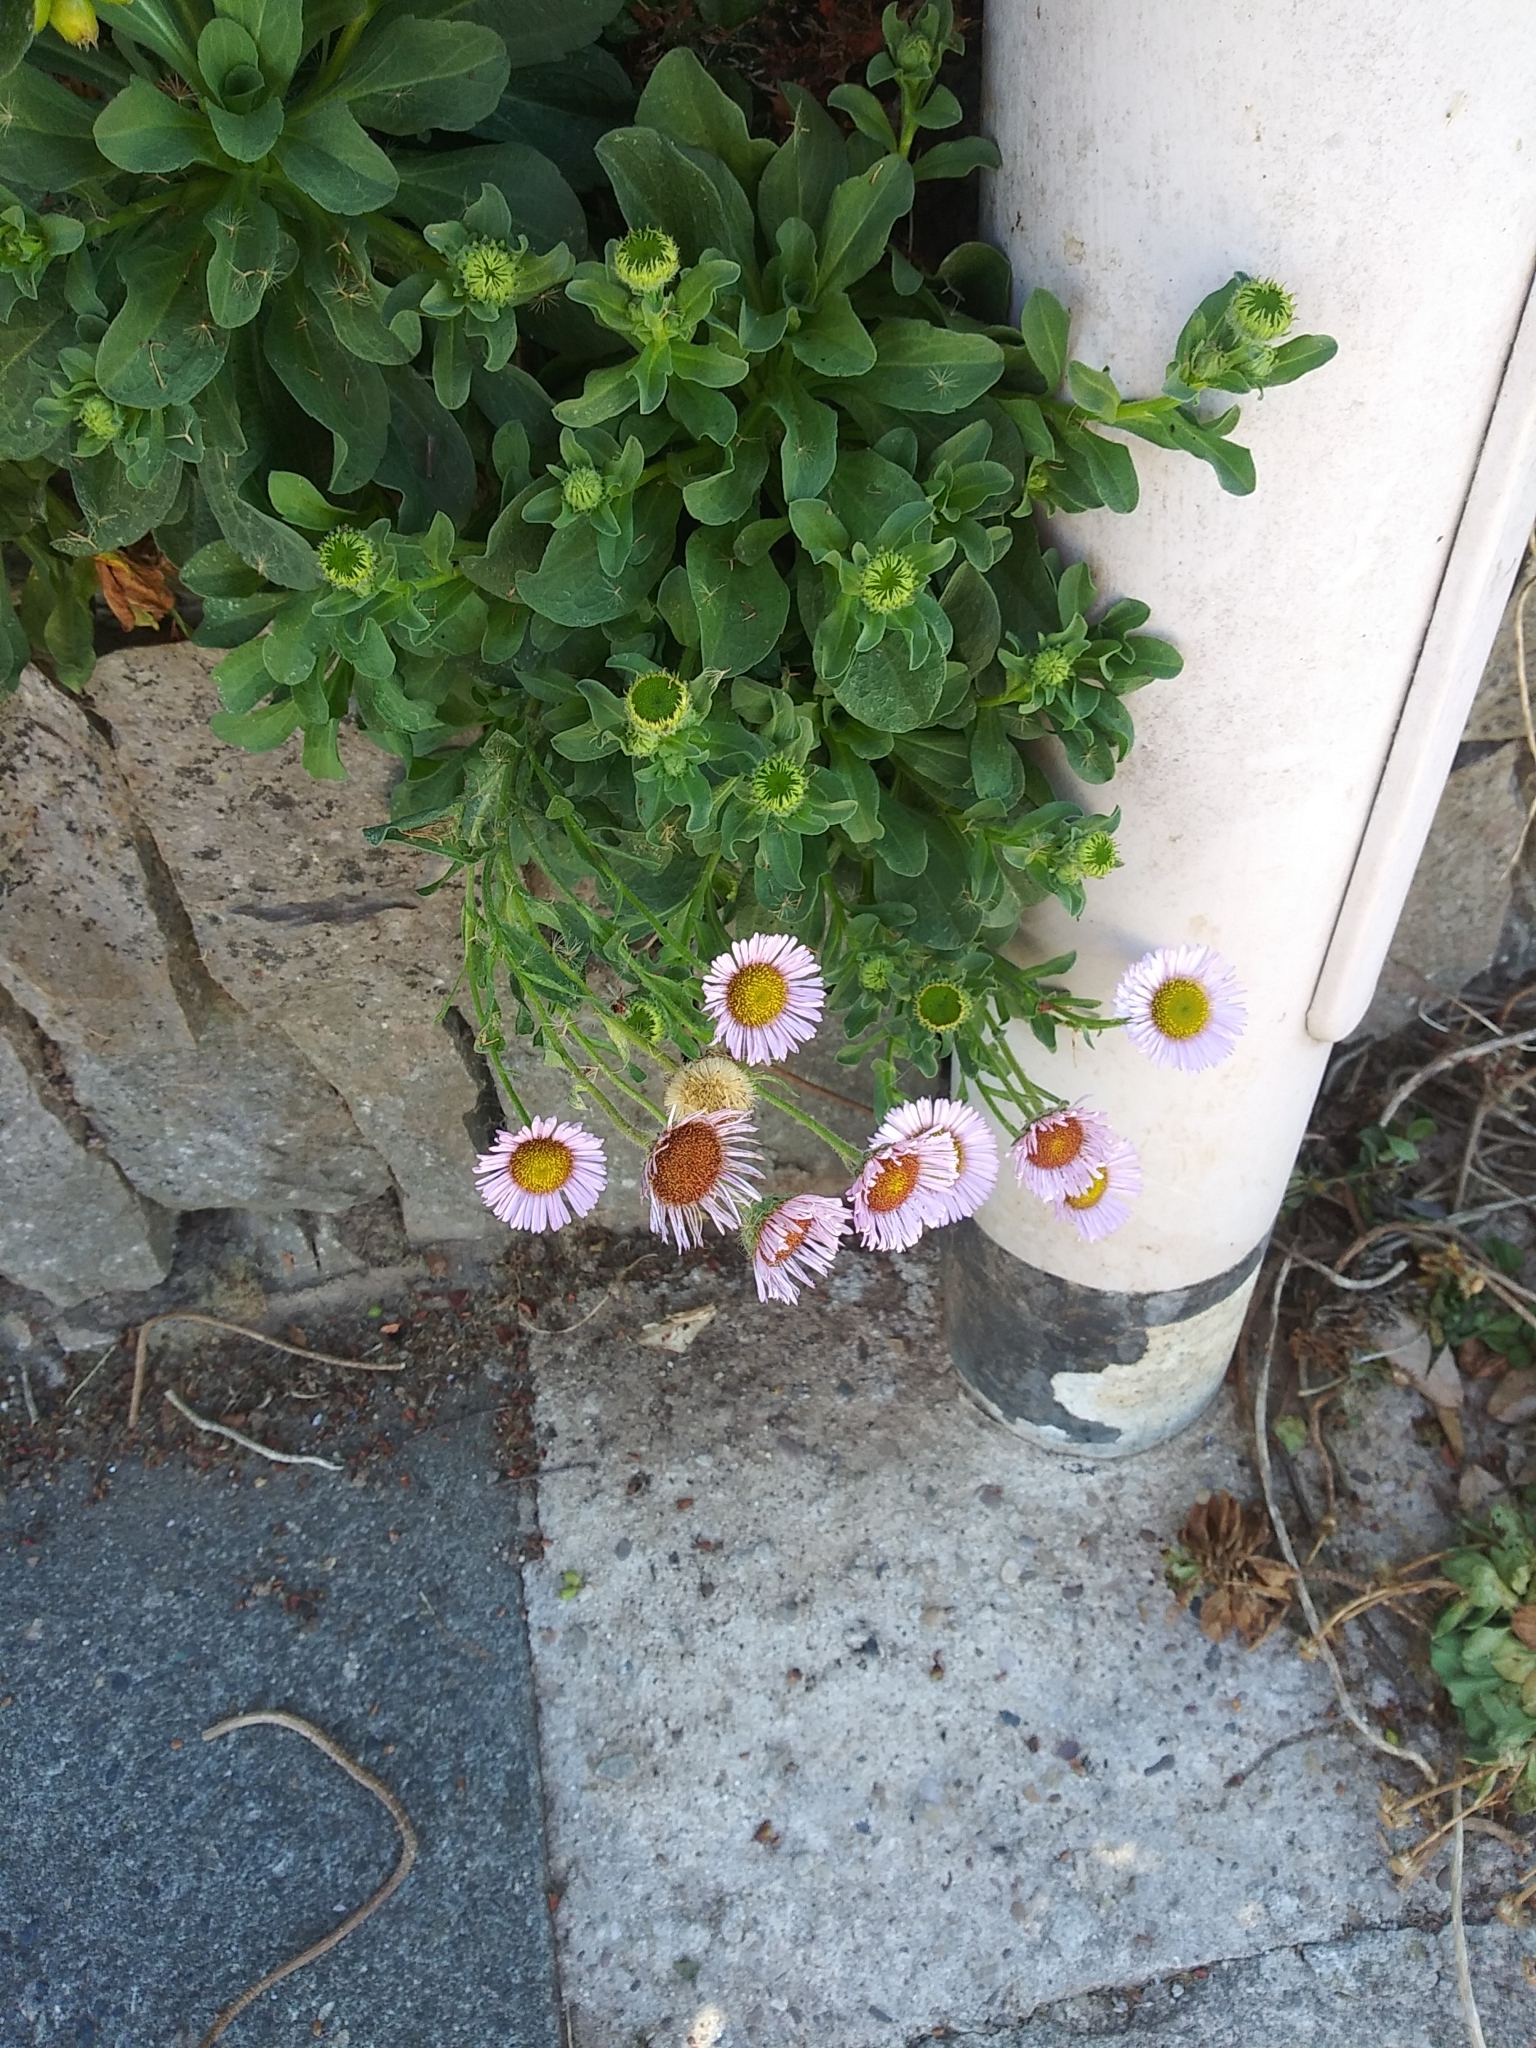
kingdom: Plantae
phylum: Tracheophyta
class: Magnoliopsida
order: Asterales
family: Asteraceae
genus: Erigeron
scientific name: Erigeron glaucus
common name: Seaside daisy
